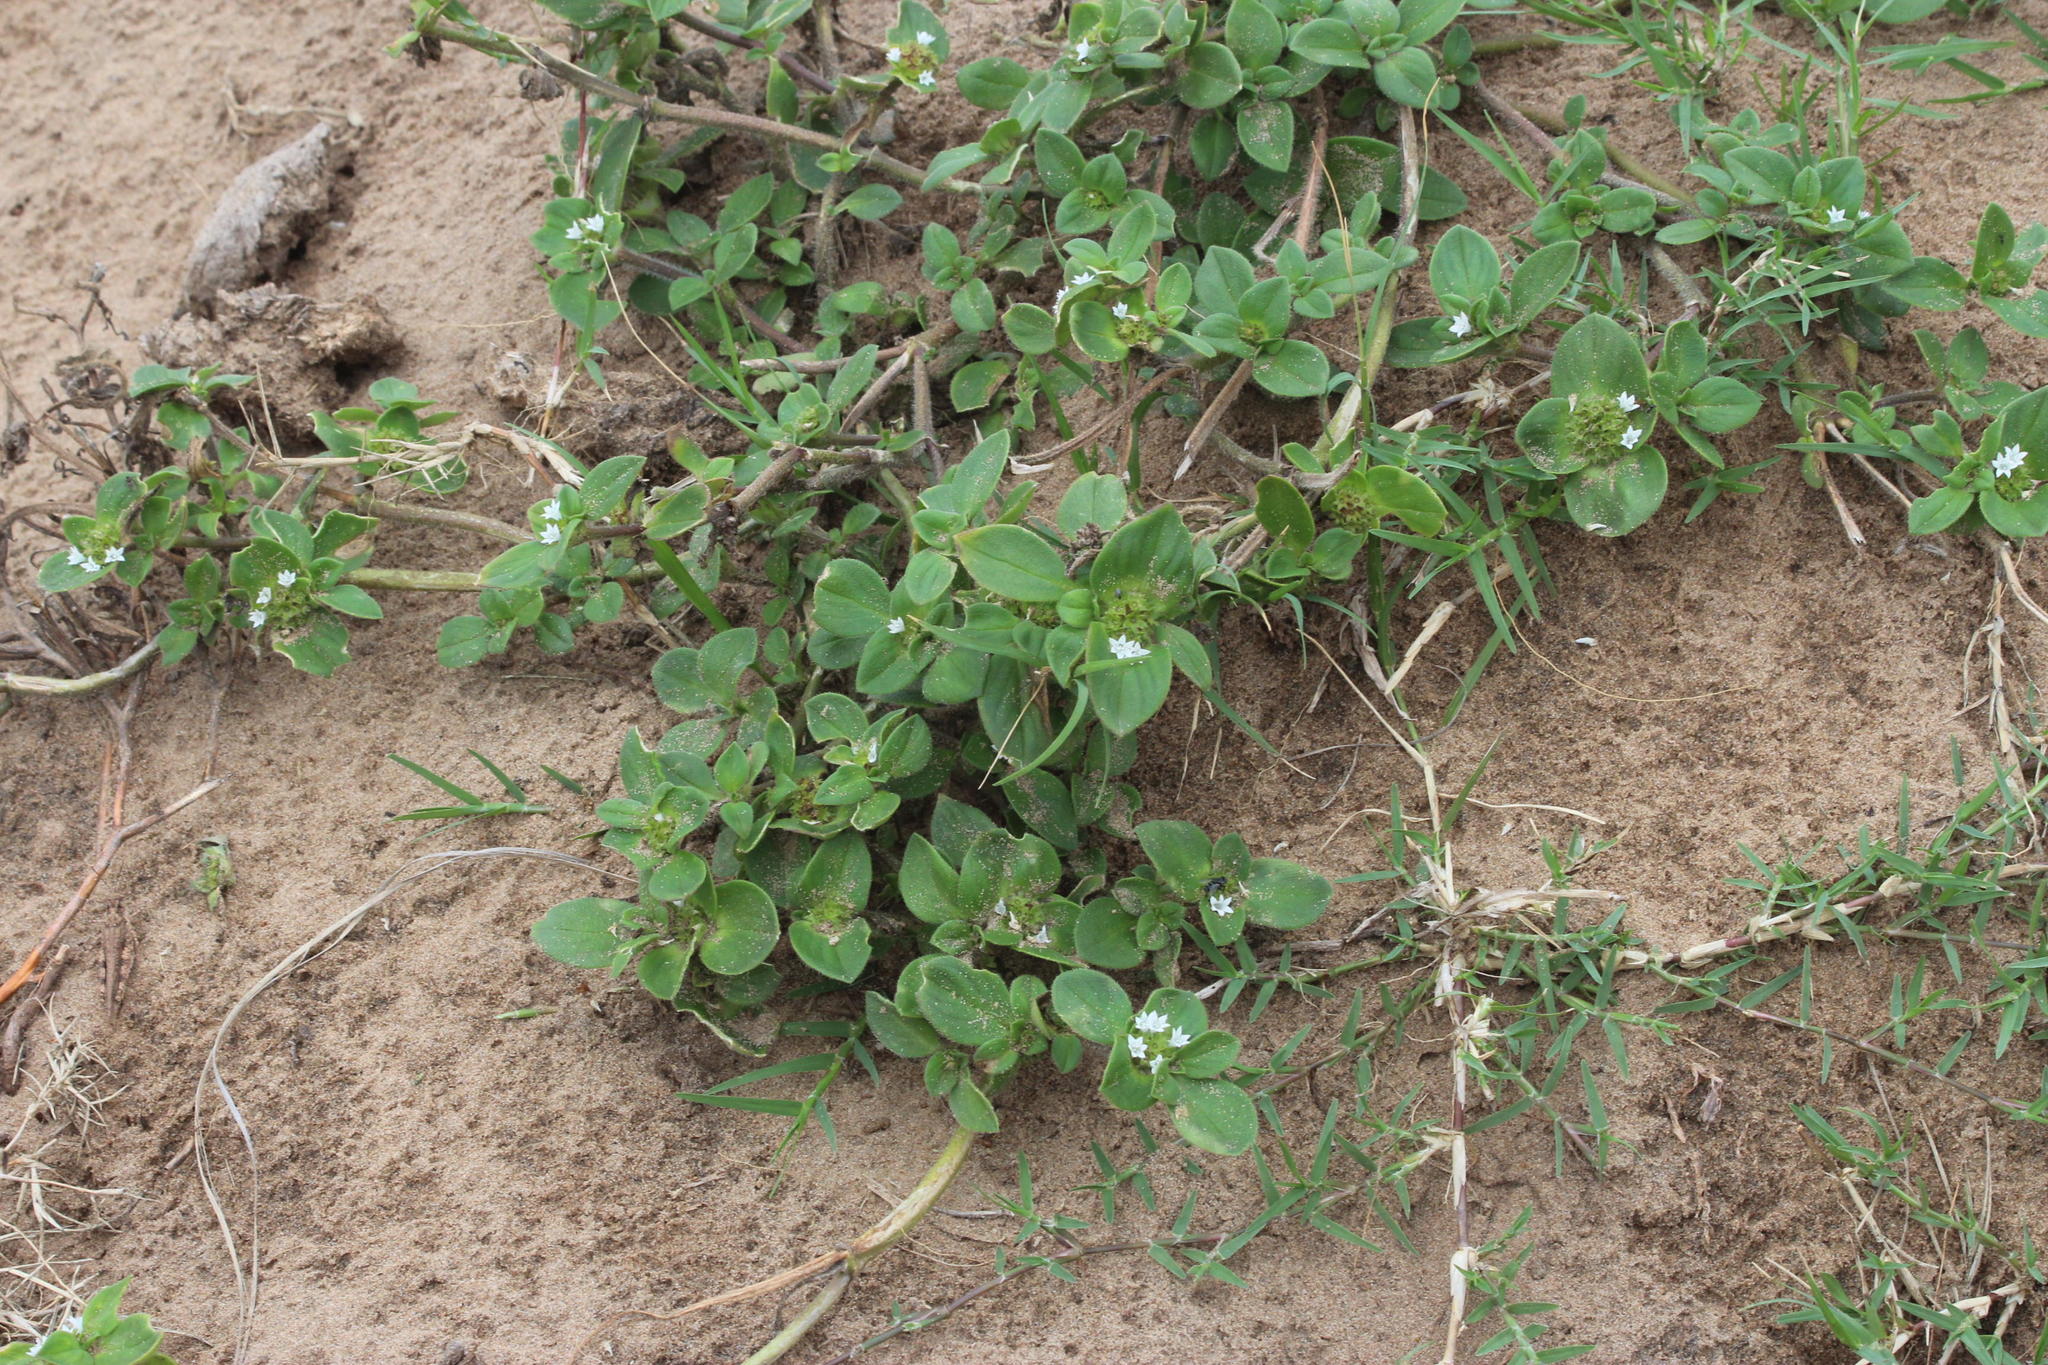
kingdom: Plantae
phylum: Tracheophyta
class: Magnoliopsida
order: Gentianales
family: Rubiaceae
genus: Richardia
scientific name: Richardia brasiliensis
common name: Tropical mexican clover
